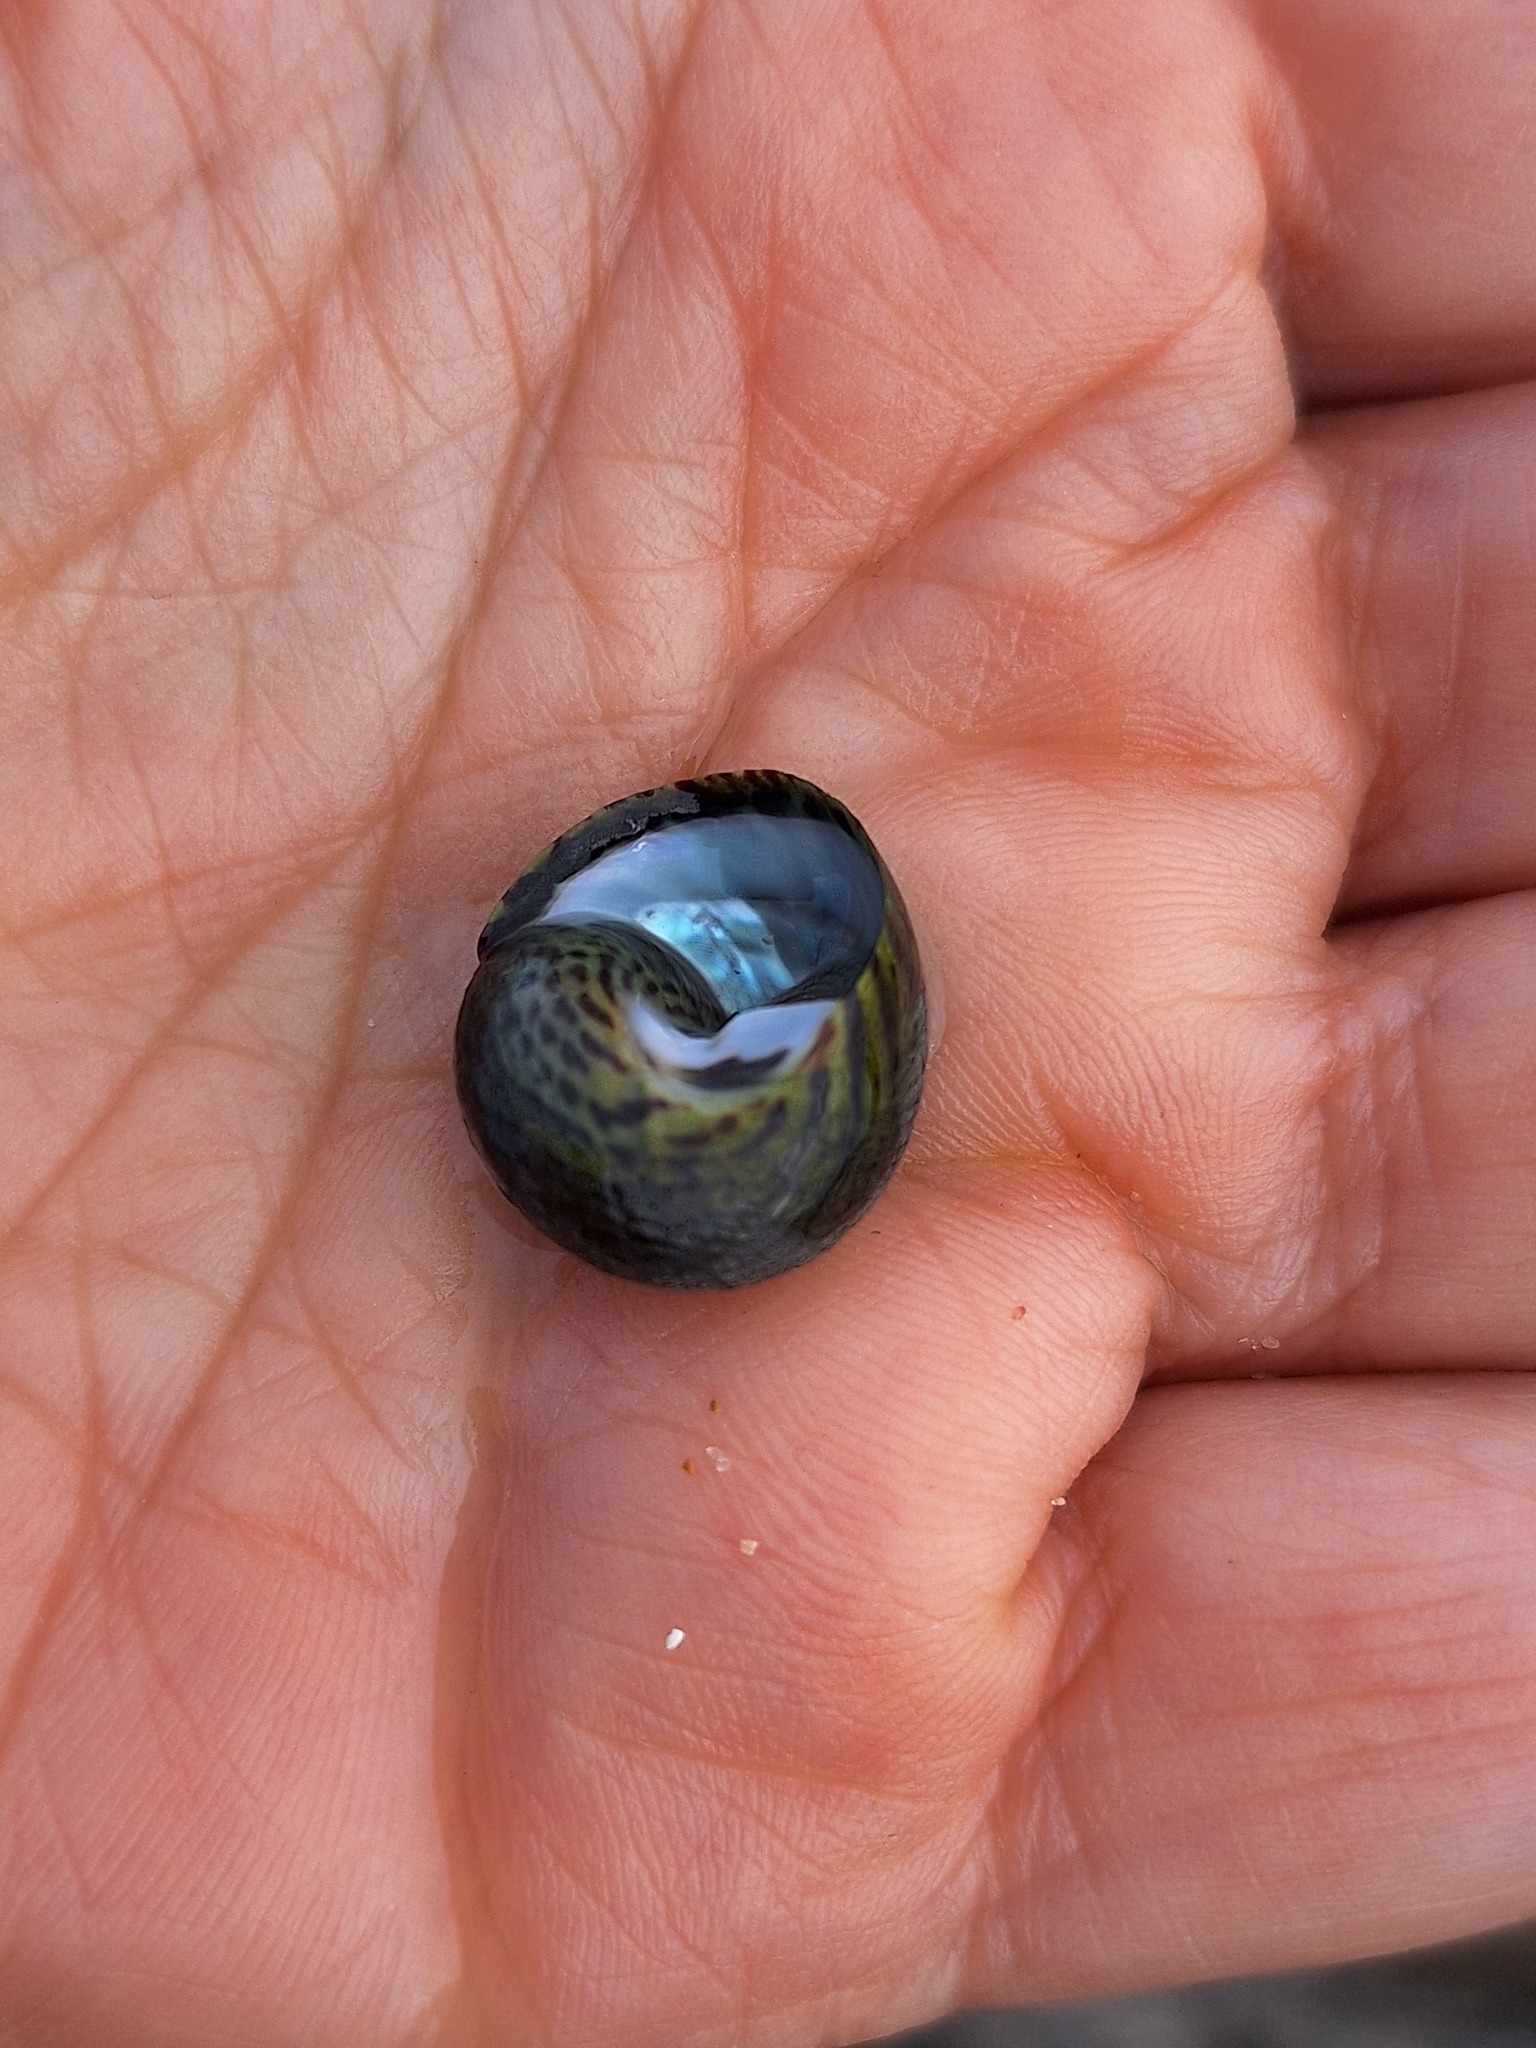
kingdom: Animalia
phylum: Mollusca
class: Gastropoda
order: Trochida
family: Trochidae
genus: Phorcus
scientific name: Phorcus sauciatus
